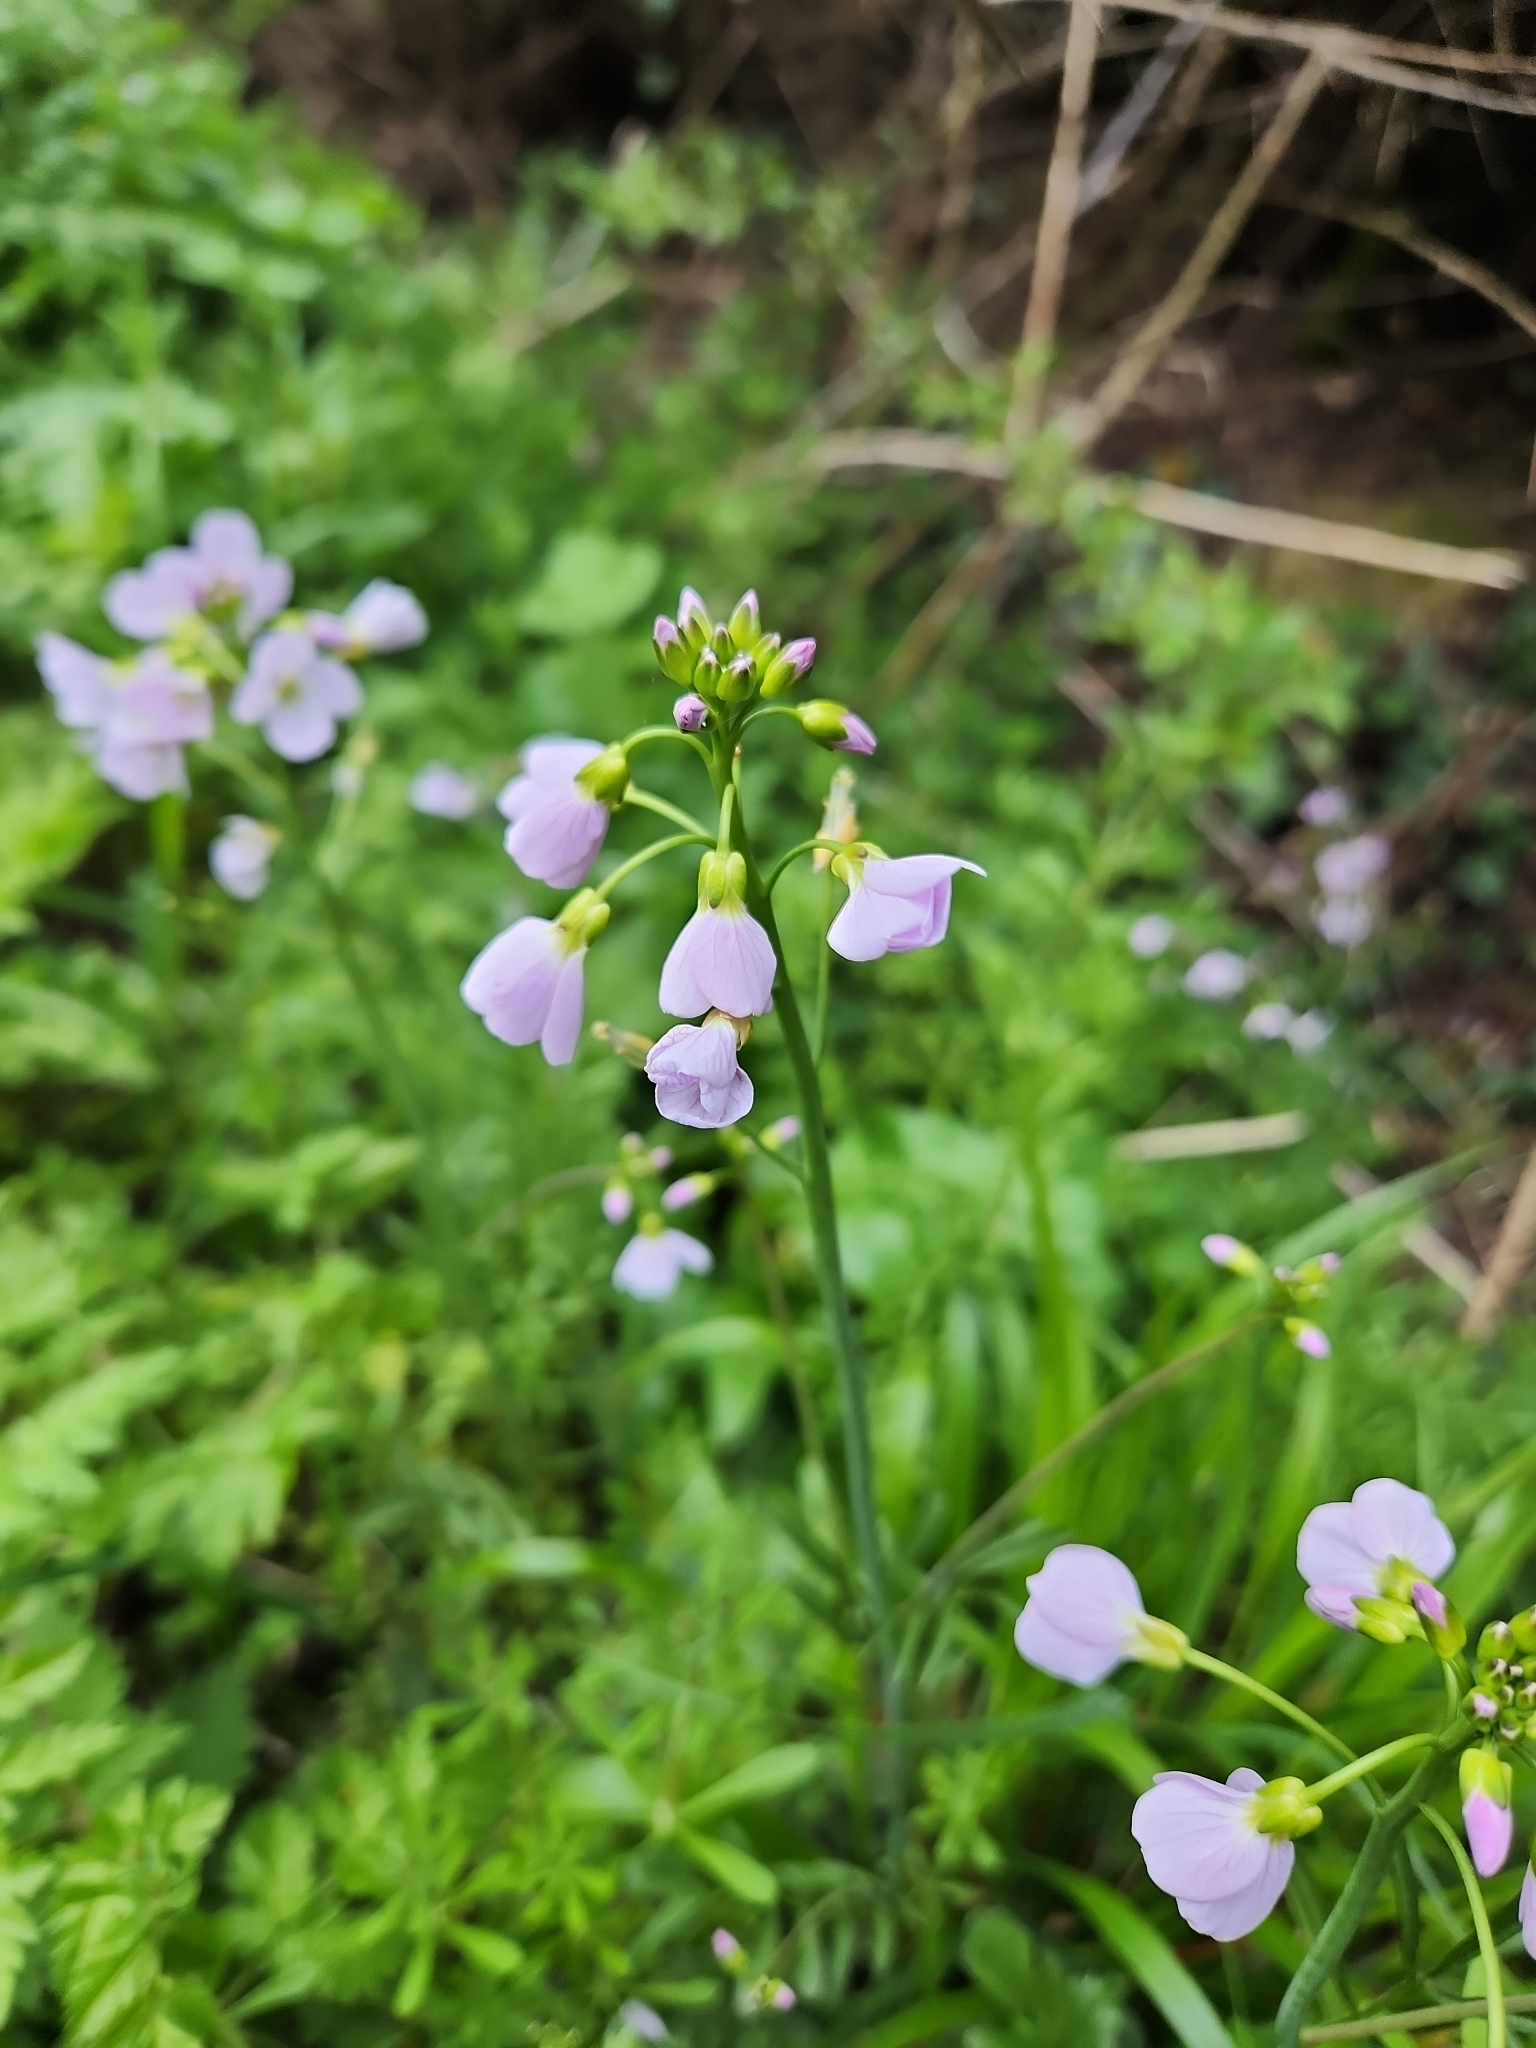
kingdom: Plantae
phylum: Tracheophyta
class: Magnoliopsida
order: Brassicales
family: Brassicaceae
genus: Cardamine
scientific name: Cardamine pratensis
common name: Cuckoo flower
